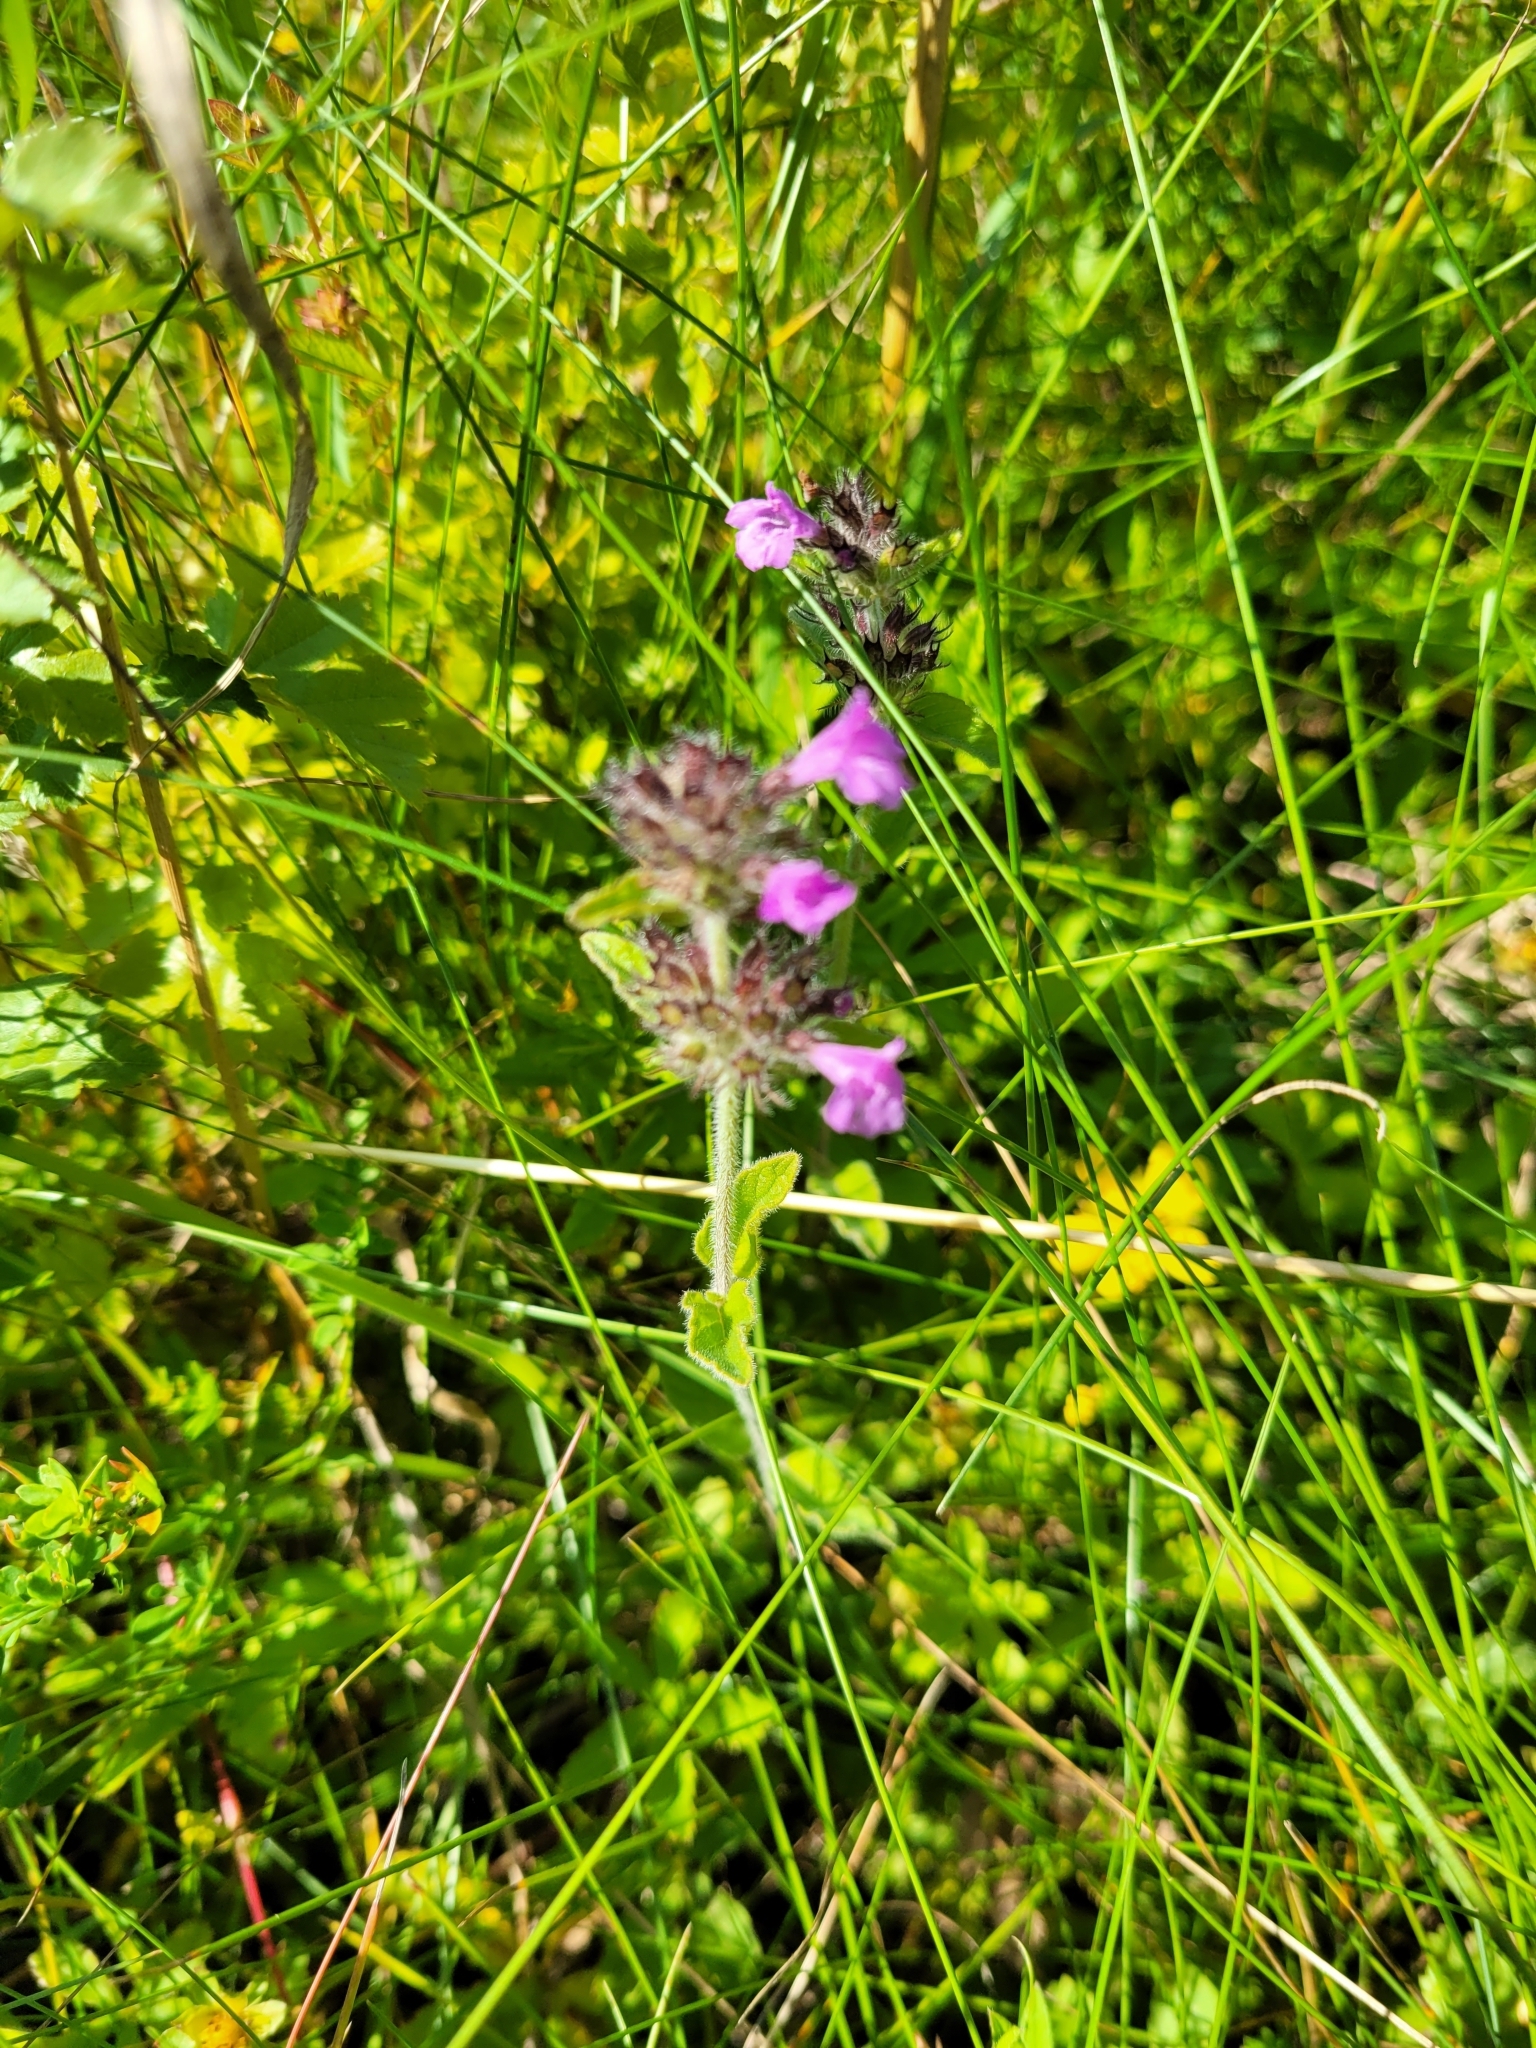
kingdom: Plantae
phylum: Tracheophyta
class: Magnoliopsida
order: Lamiales
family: Lamiaceae
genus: Clinopodium
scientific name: Clinopodium vulgare
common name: Wild basil
